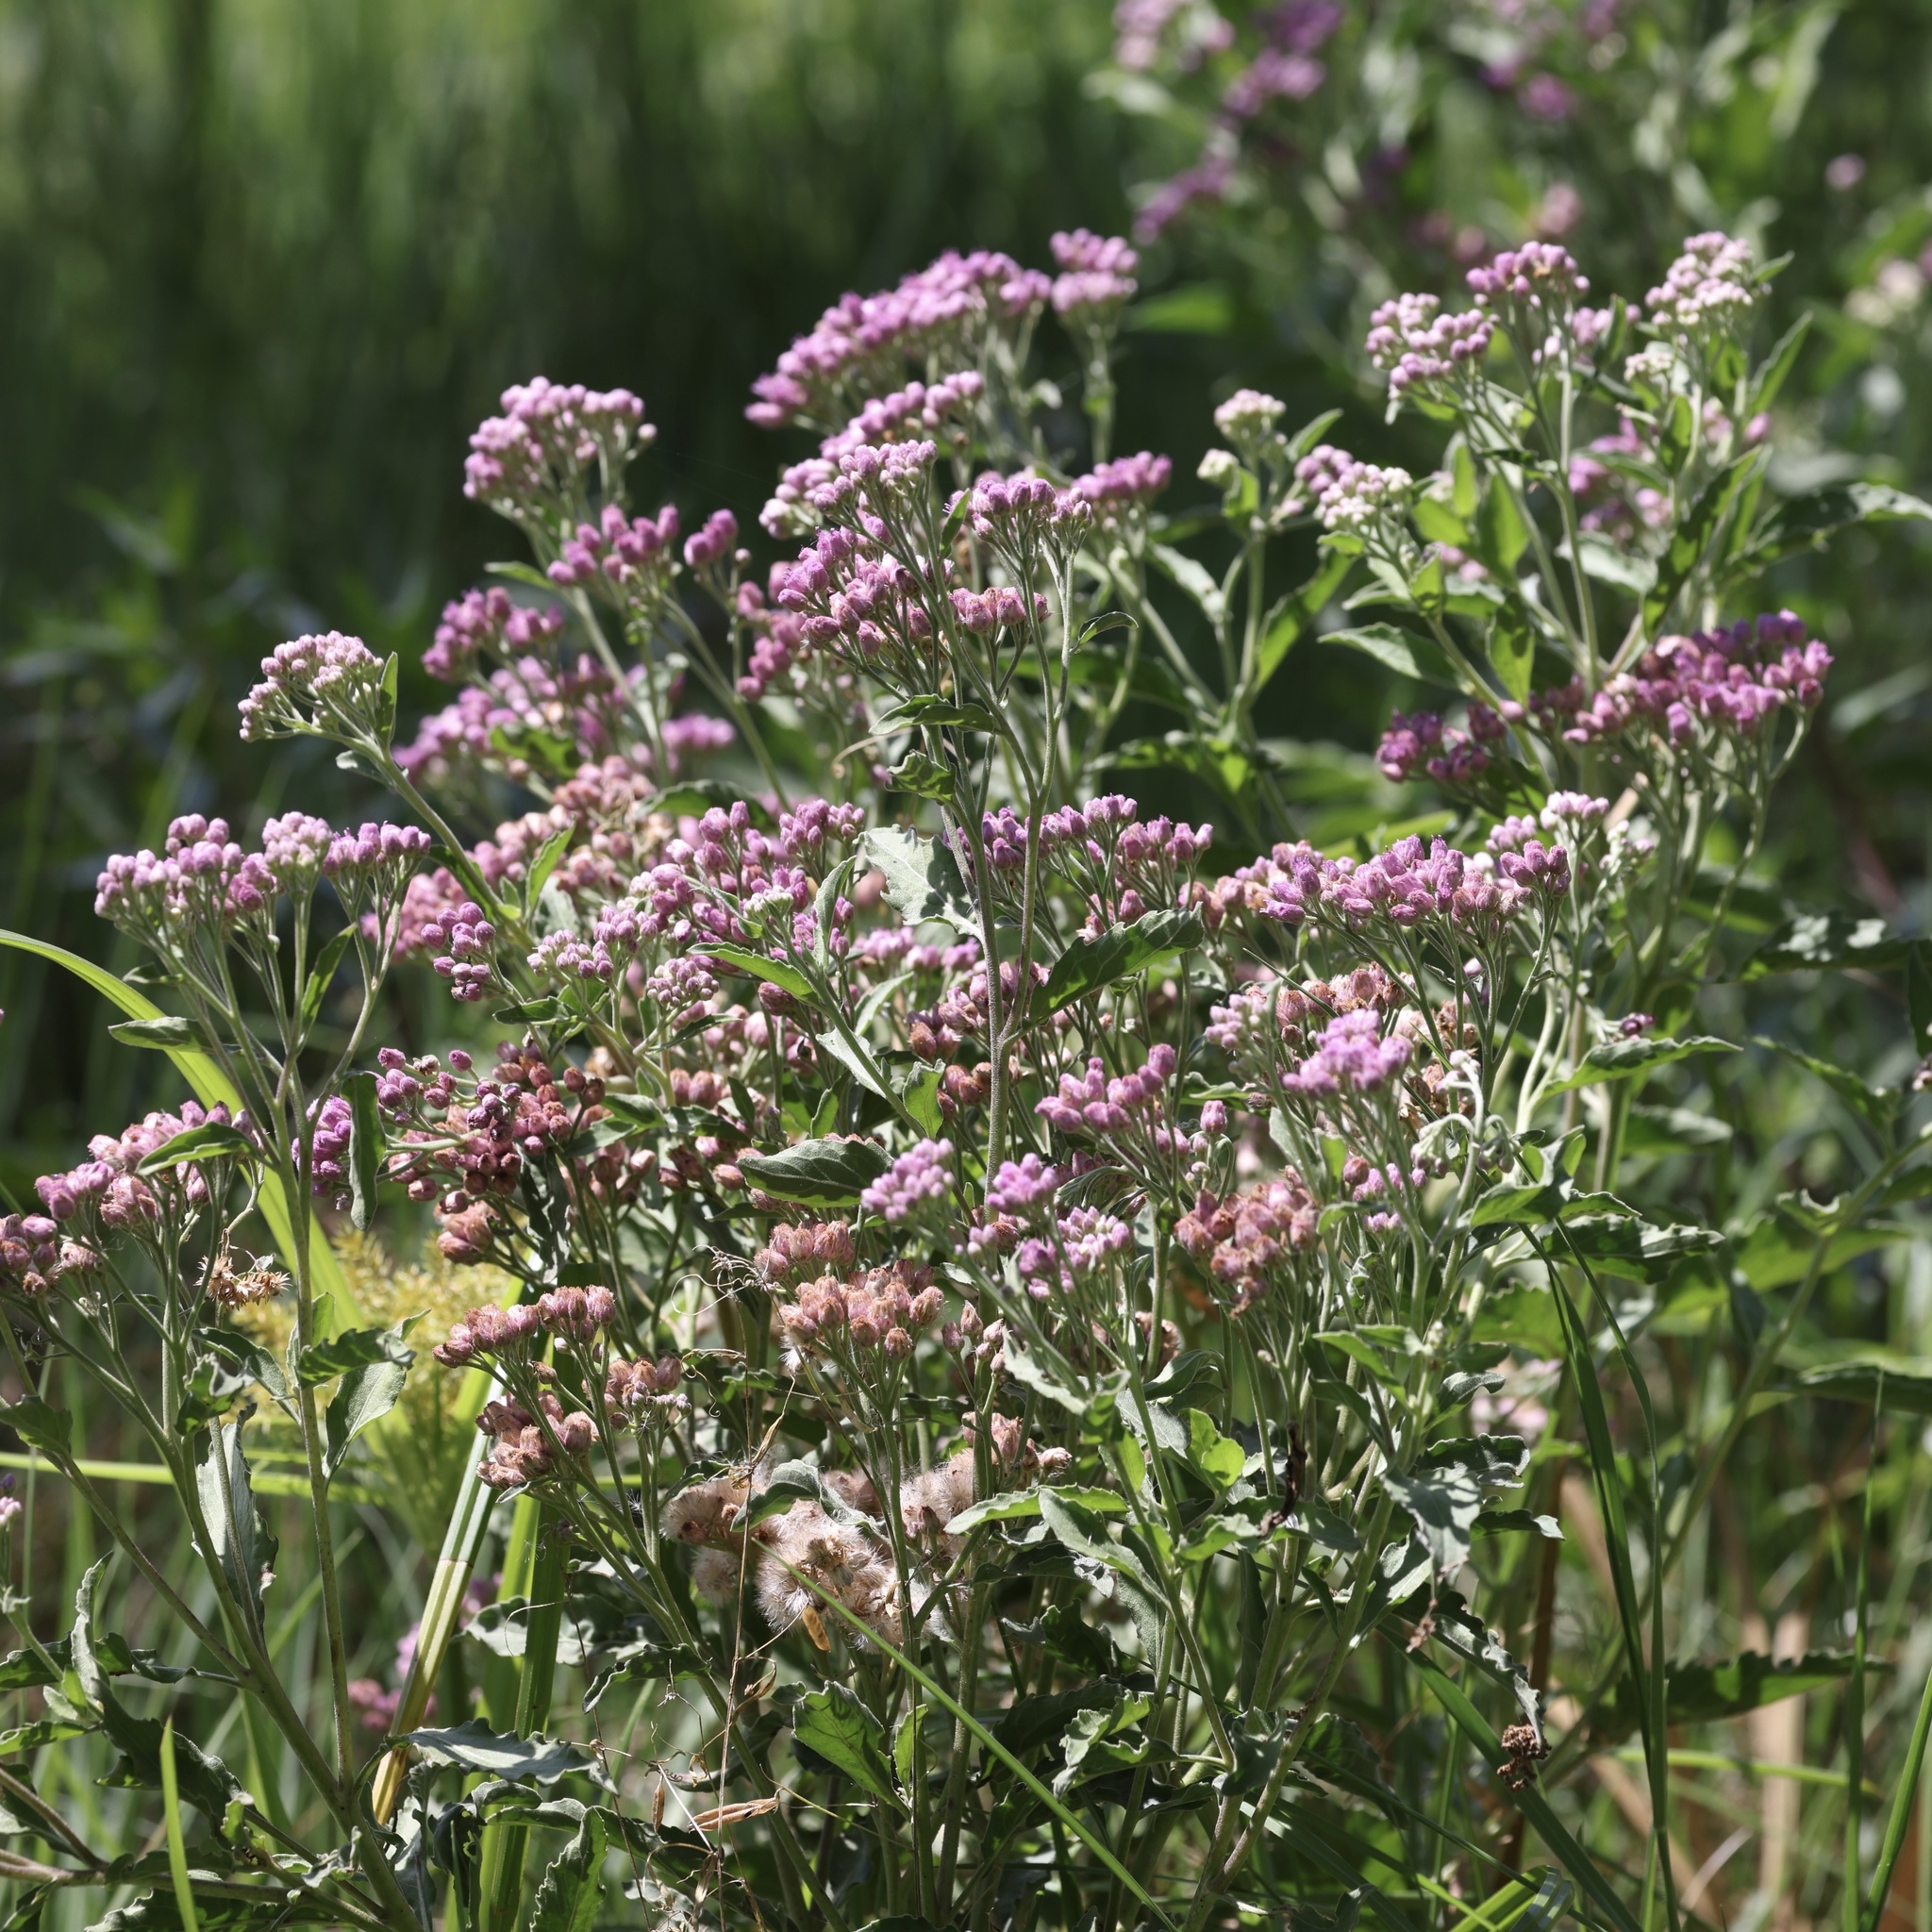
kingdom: Plantae
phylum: Tracheophyta
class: Magnoliopsida
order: Asterales
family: Asteraceae
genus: Pluchea
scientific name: Pluchea odorata
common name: Saltmarsh fleabane
